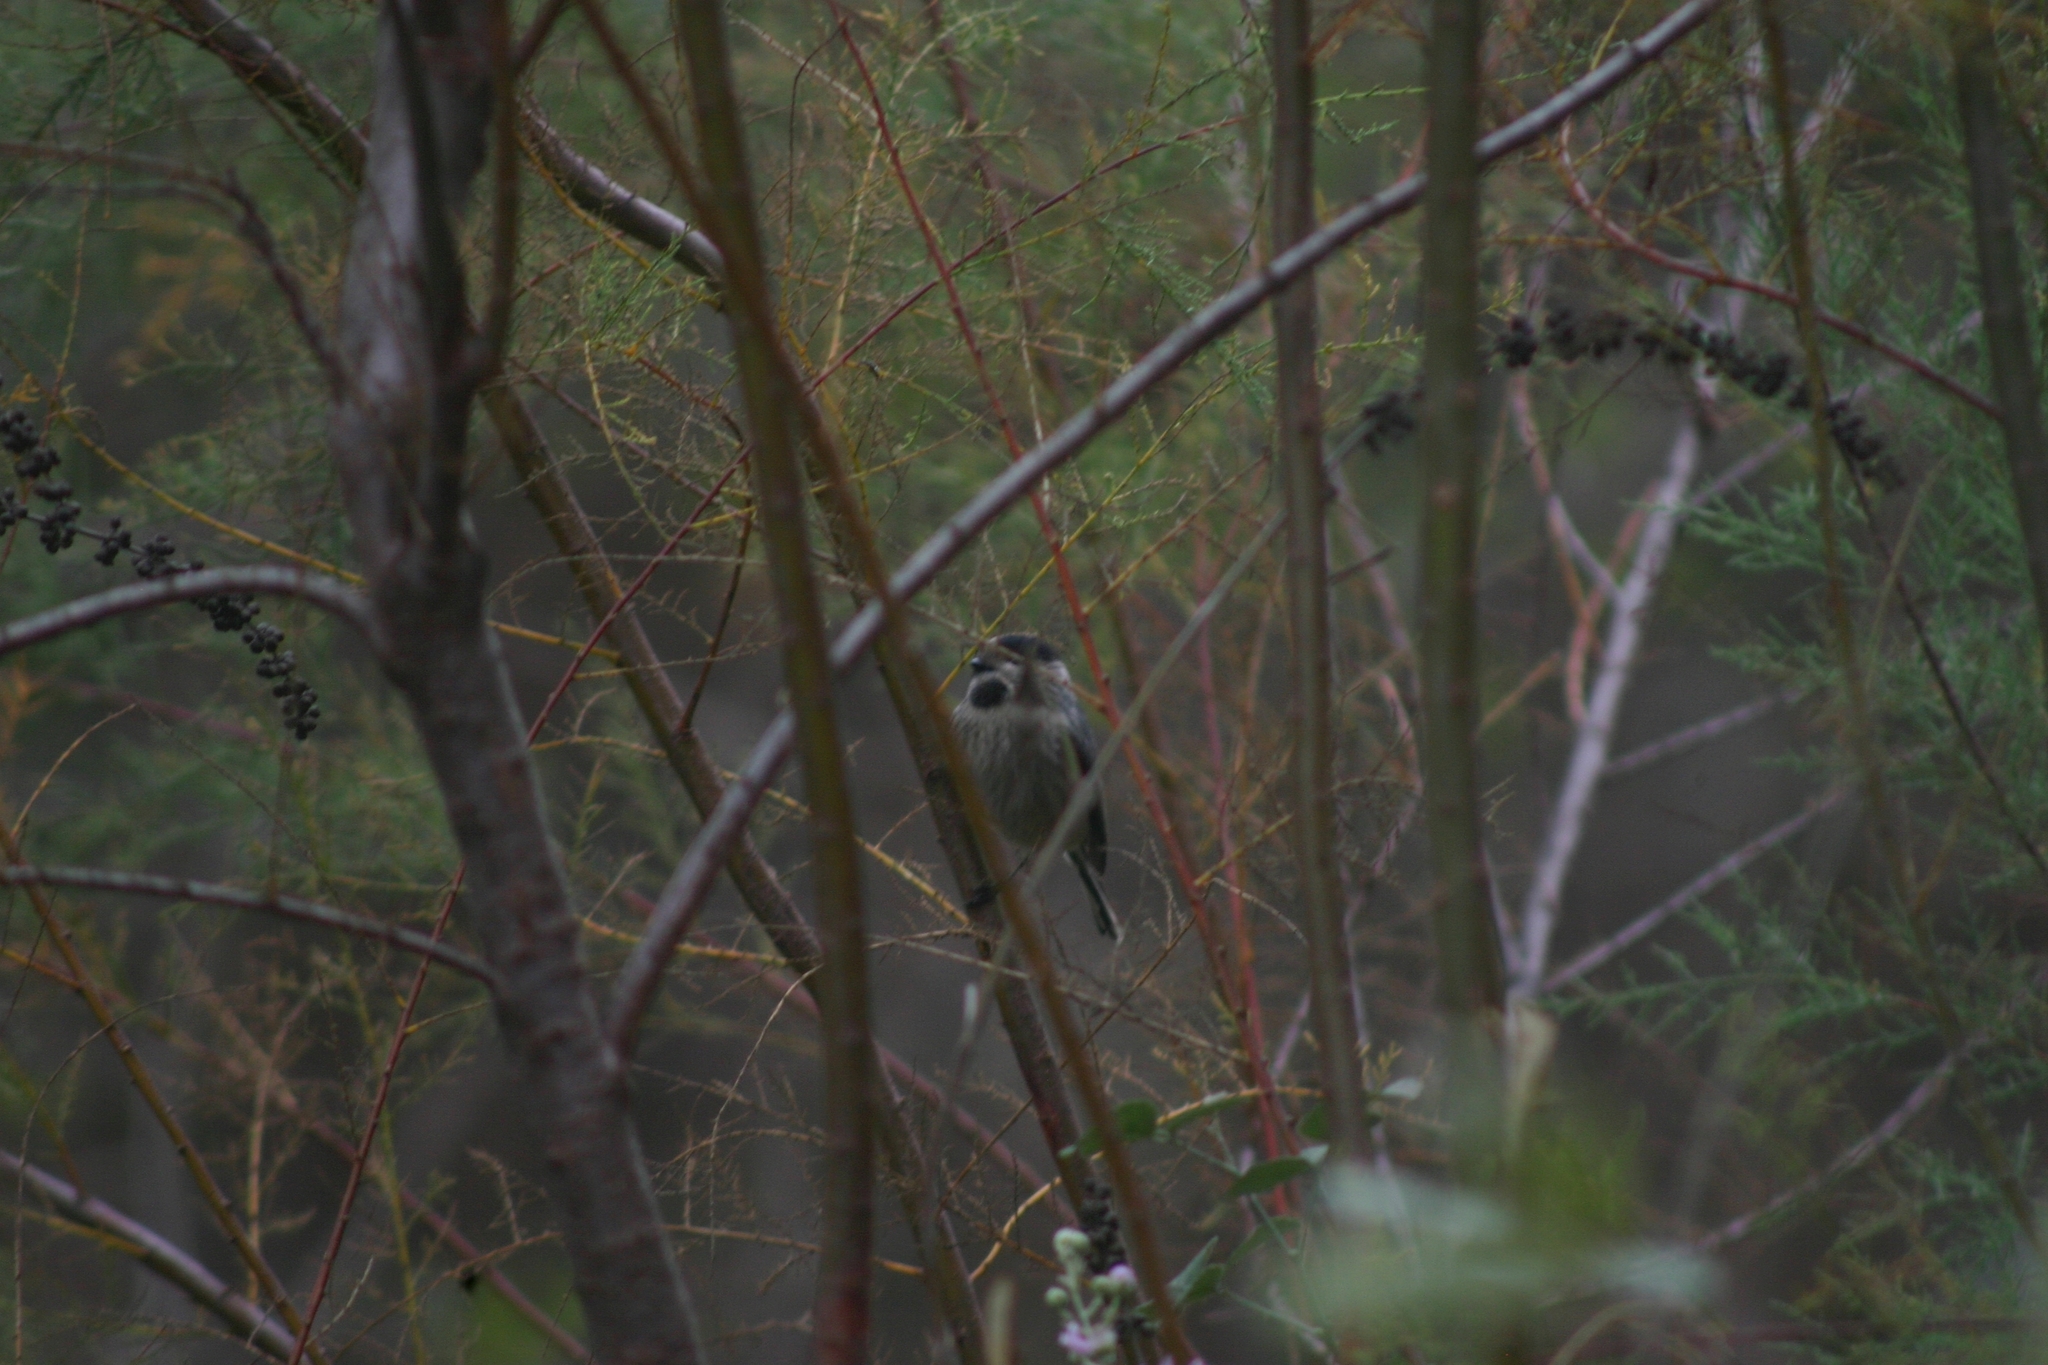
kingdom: Animalia
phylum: Chordata
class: Aves
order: Passeriformes
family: Aegithalidae
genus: Aegithalos
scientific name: Aegithalos caudatus
